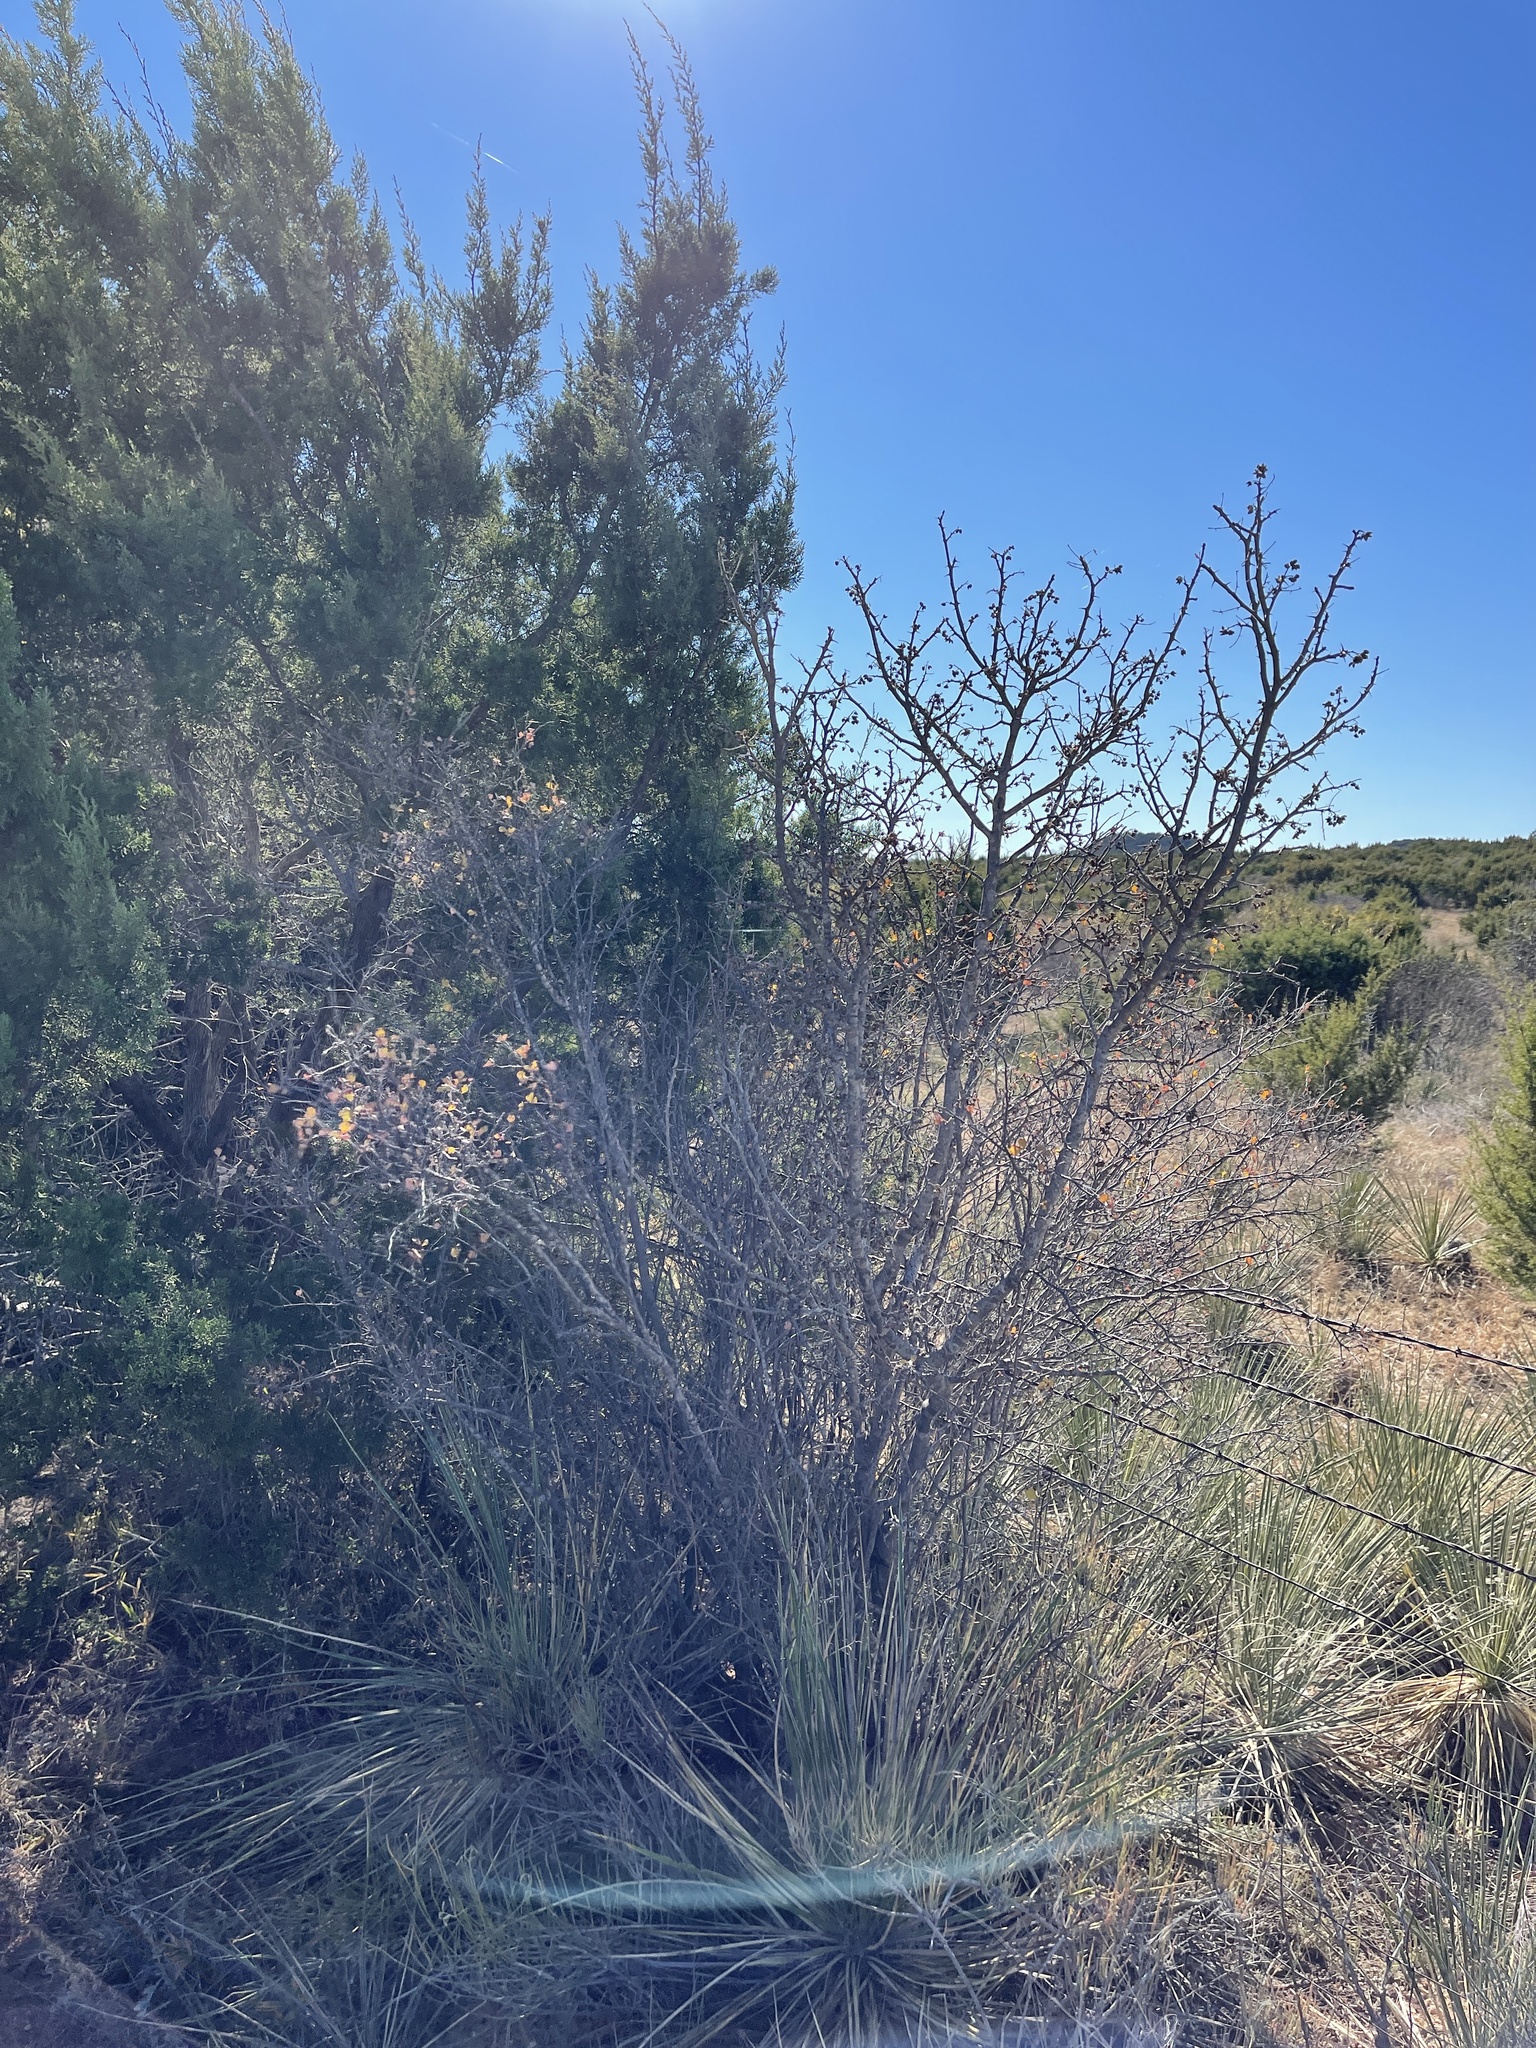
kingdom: Plantae
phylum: Tracheophyta
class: Magnoliopsida
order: Sapindales
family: Anacardiaceae
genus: Rhus
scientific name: Rhus aromatica
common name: Aromatic sumac
